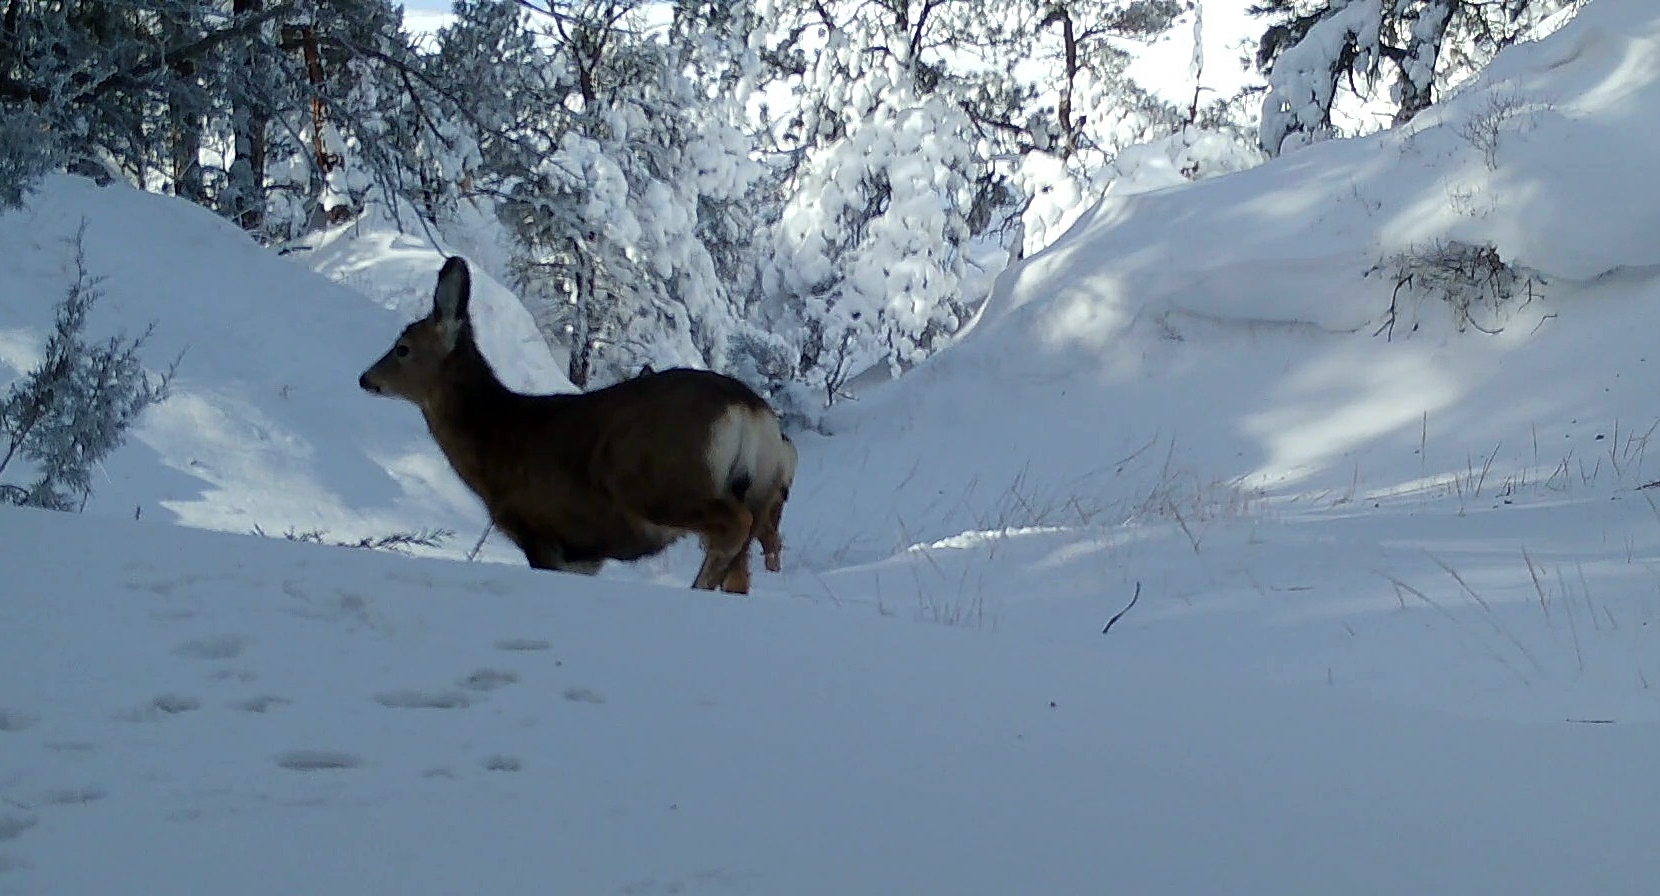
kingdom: Animalia
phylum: Chordata
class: Mammalia
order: Artiodactyla
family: Cervidae
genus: Odocoileus
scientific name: Odocoileus hemionus
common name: Mule deer
